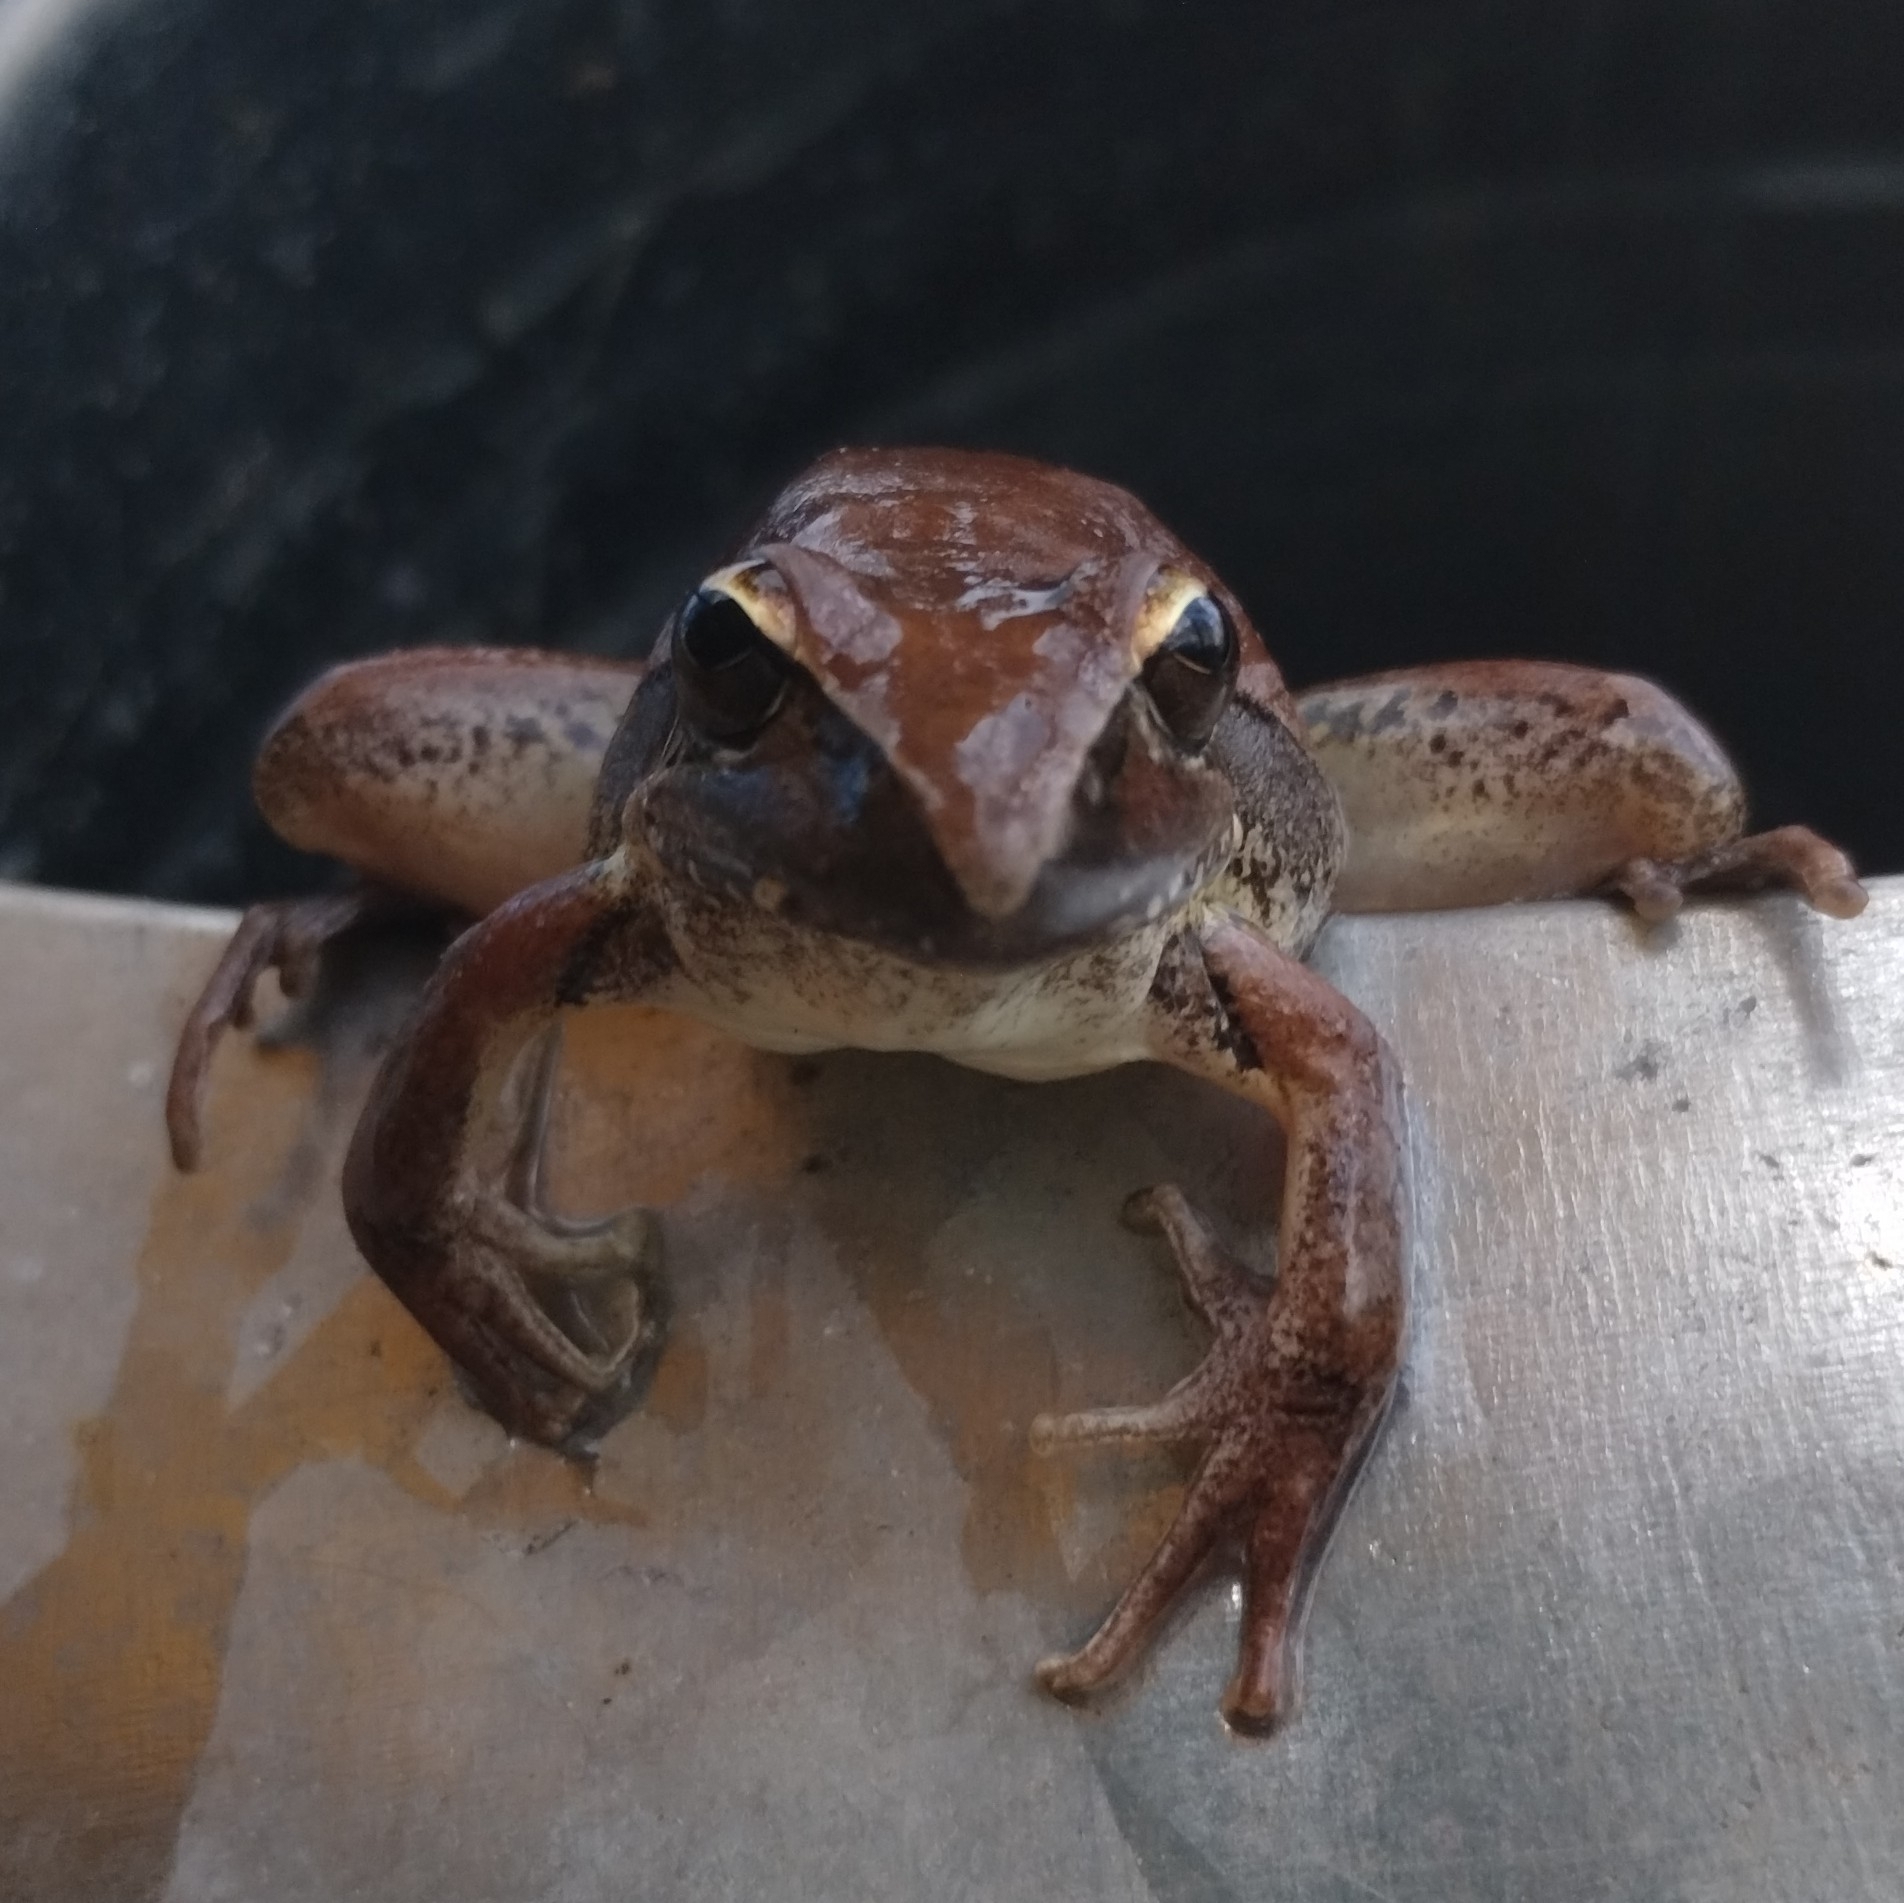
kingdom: Animalia
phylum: Chordata
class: Amphibia
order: Anura
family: Pelodryadidae
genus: Litoria
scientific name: Litoria watjulumensis
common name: Wotjulum frog
